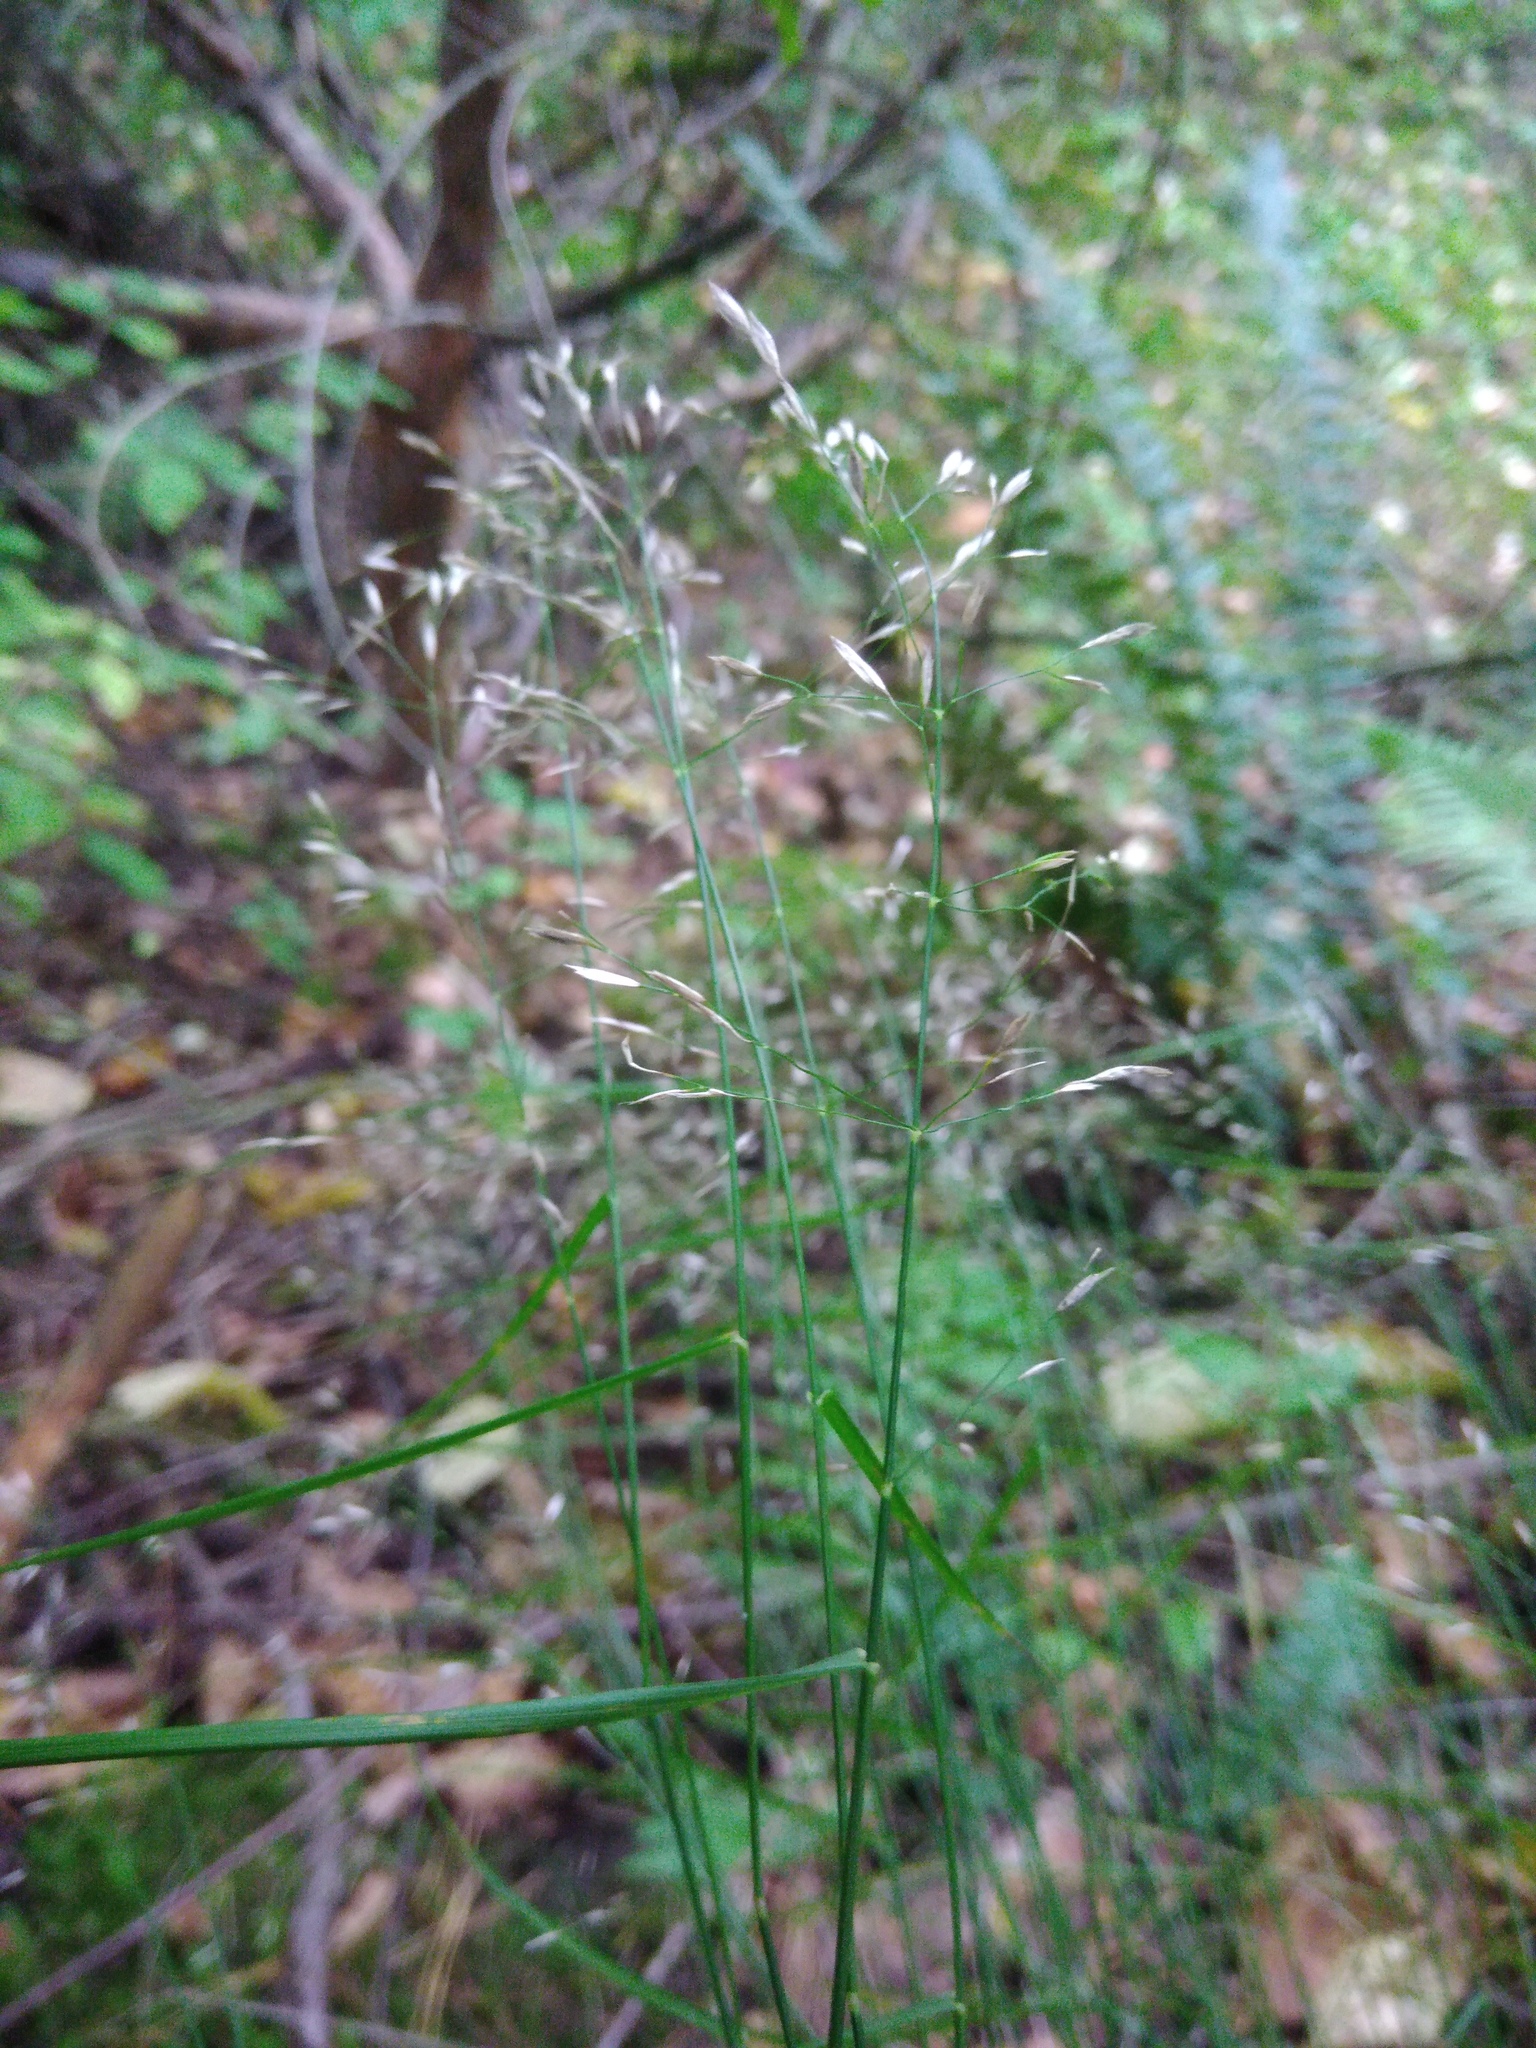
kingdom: Plantae
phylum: Tracheophyta
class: Liliopsida
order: Poales
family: Poaceae
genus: Poa
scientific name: Poa nemoralis
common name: Wood bluegrass
